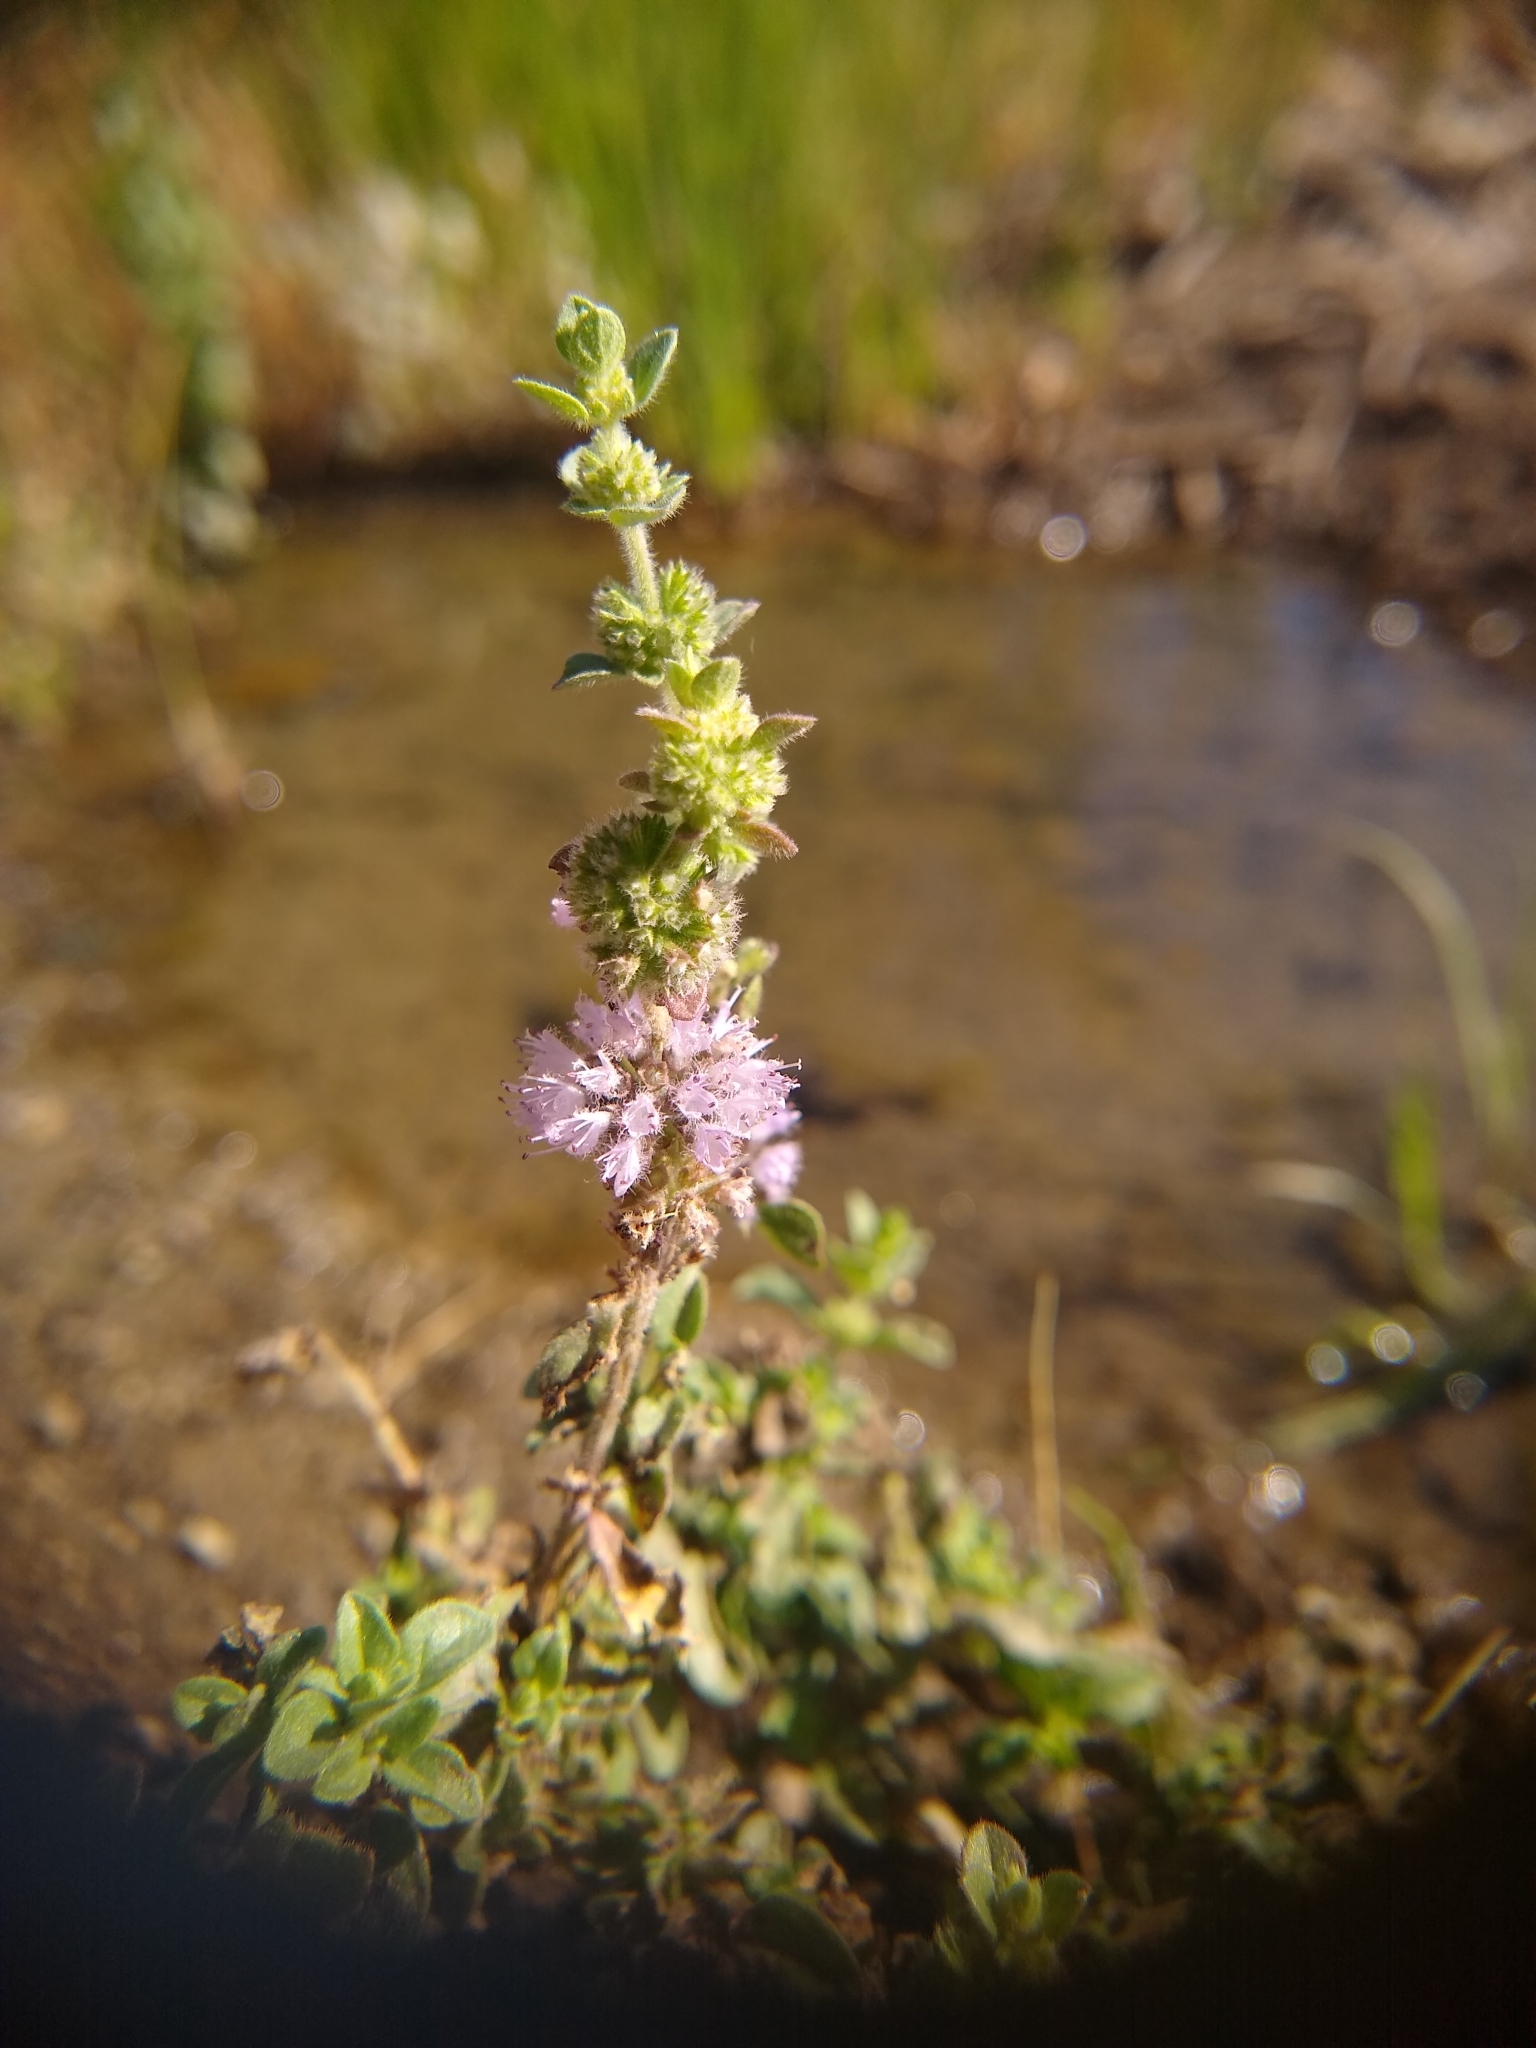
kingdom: Plantae
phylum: Tracheophyta
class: Magnoliopsida
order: Lamiales
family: Lamiaceae
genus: Mentha
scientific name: Mentha pulegium
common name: Pennyroyal
